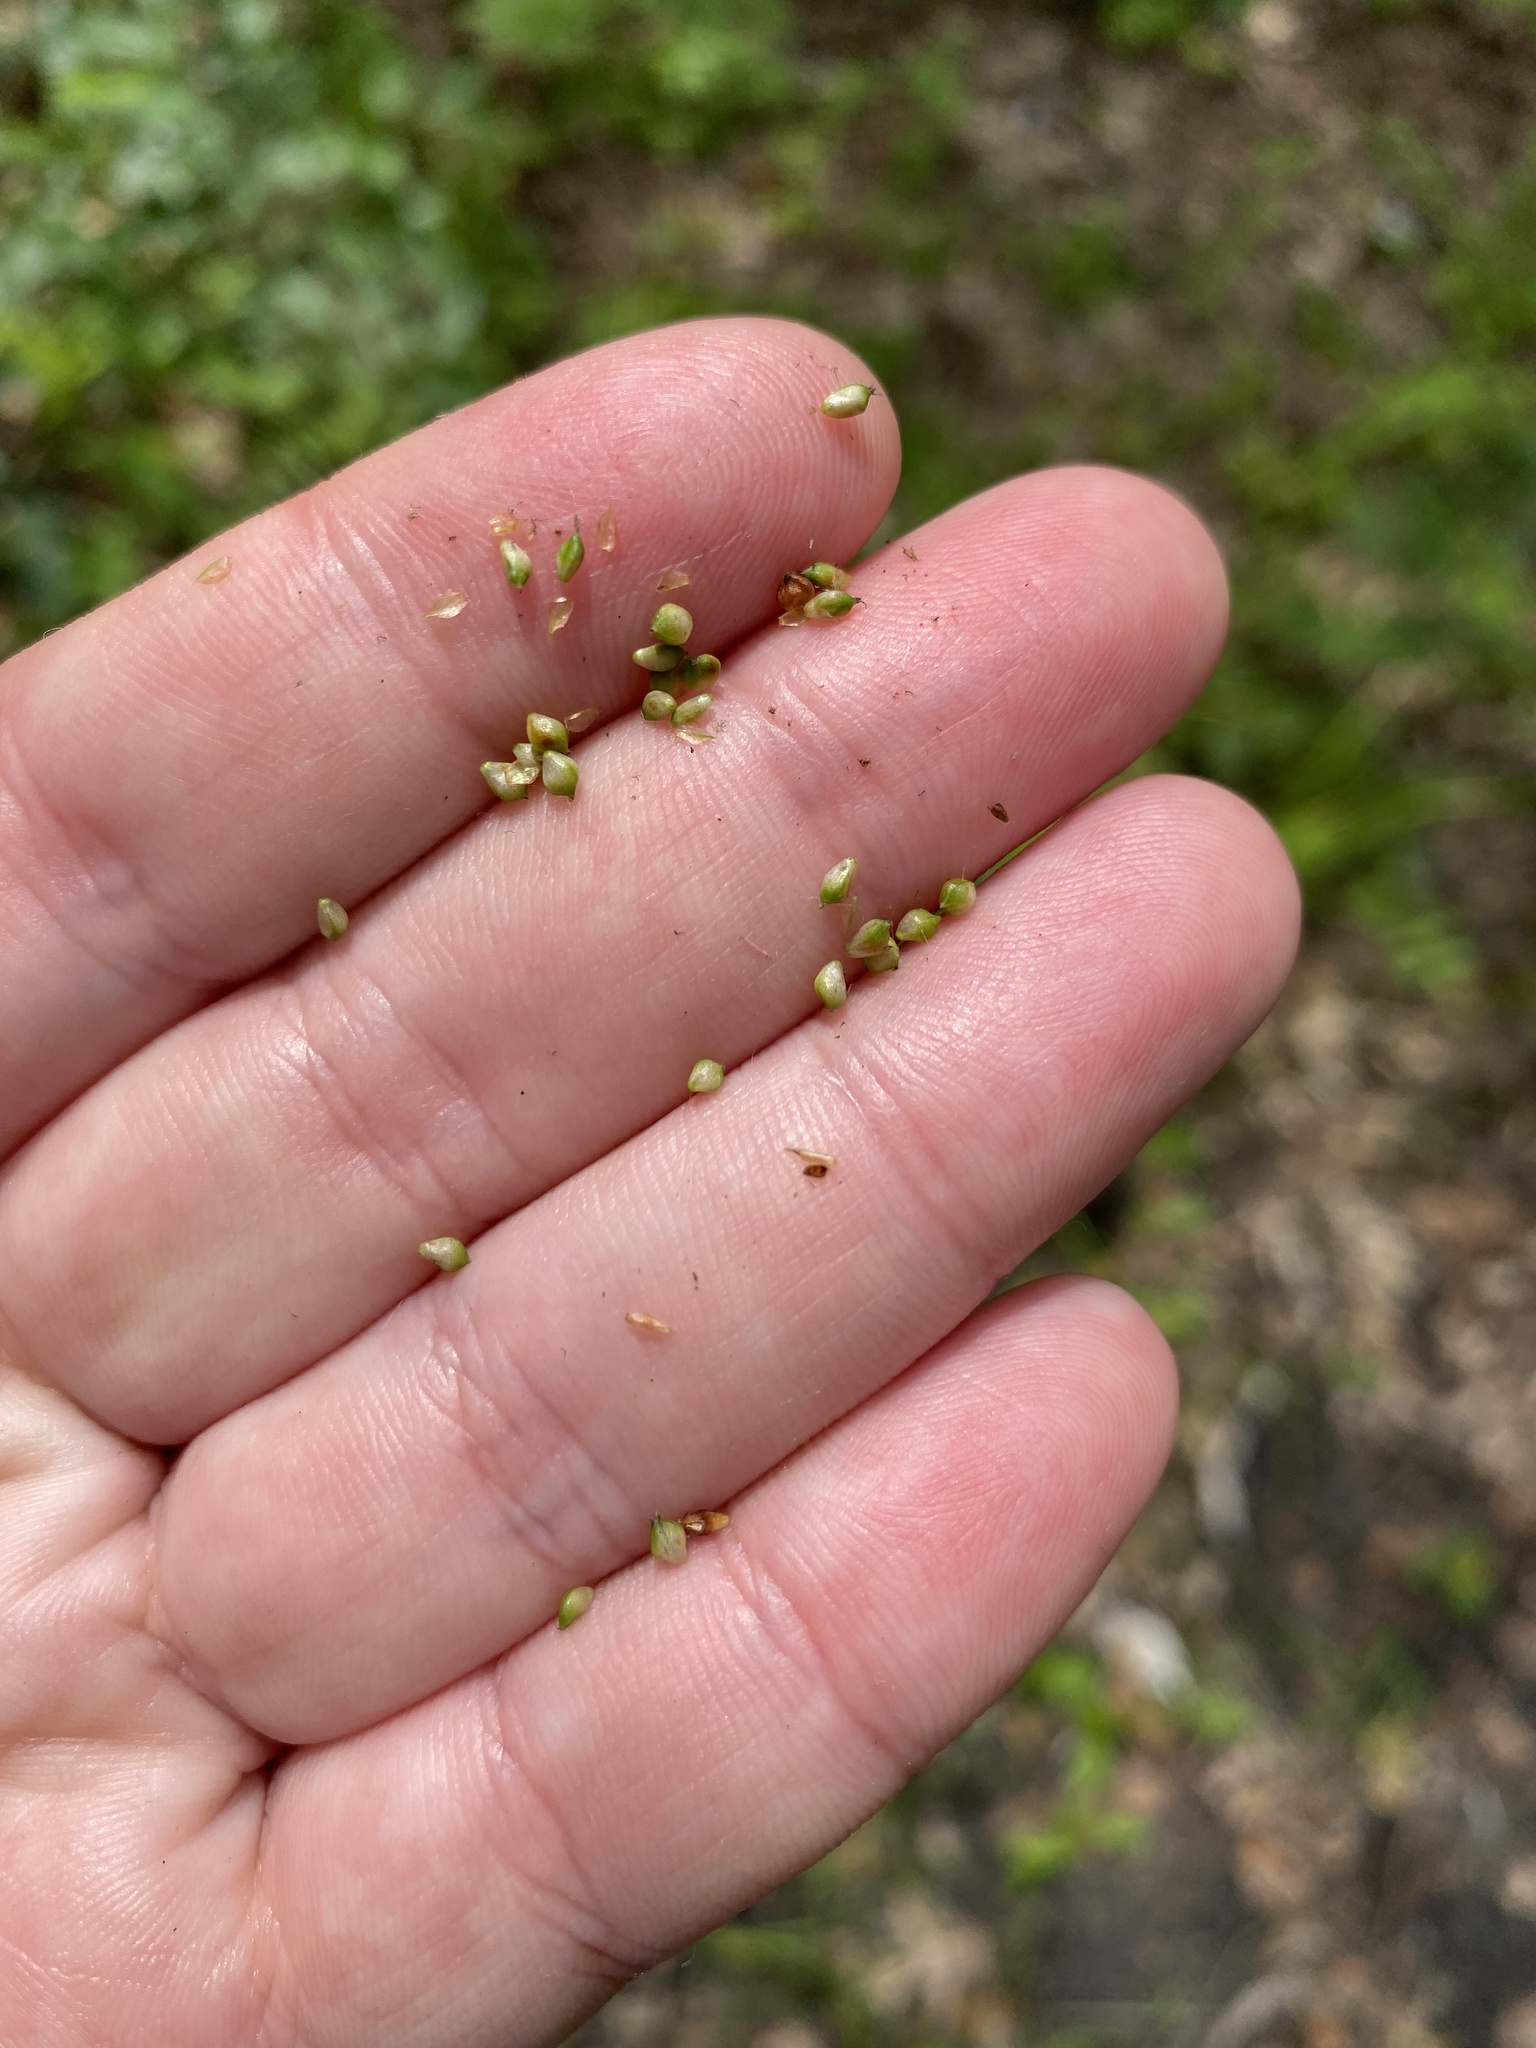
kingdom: Plantae
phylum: Tracheophyta
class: Liliopsida
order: Poales
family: Cyperaceae
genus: Carex
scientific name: Carex caroliniana
